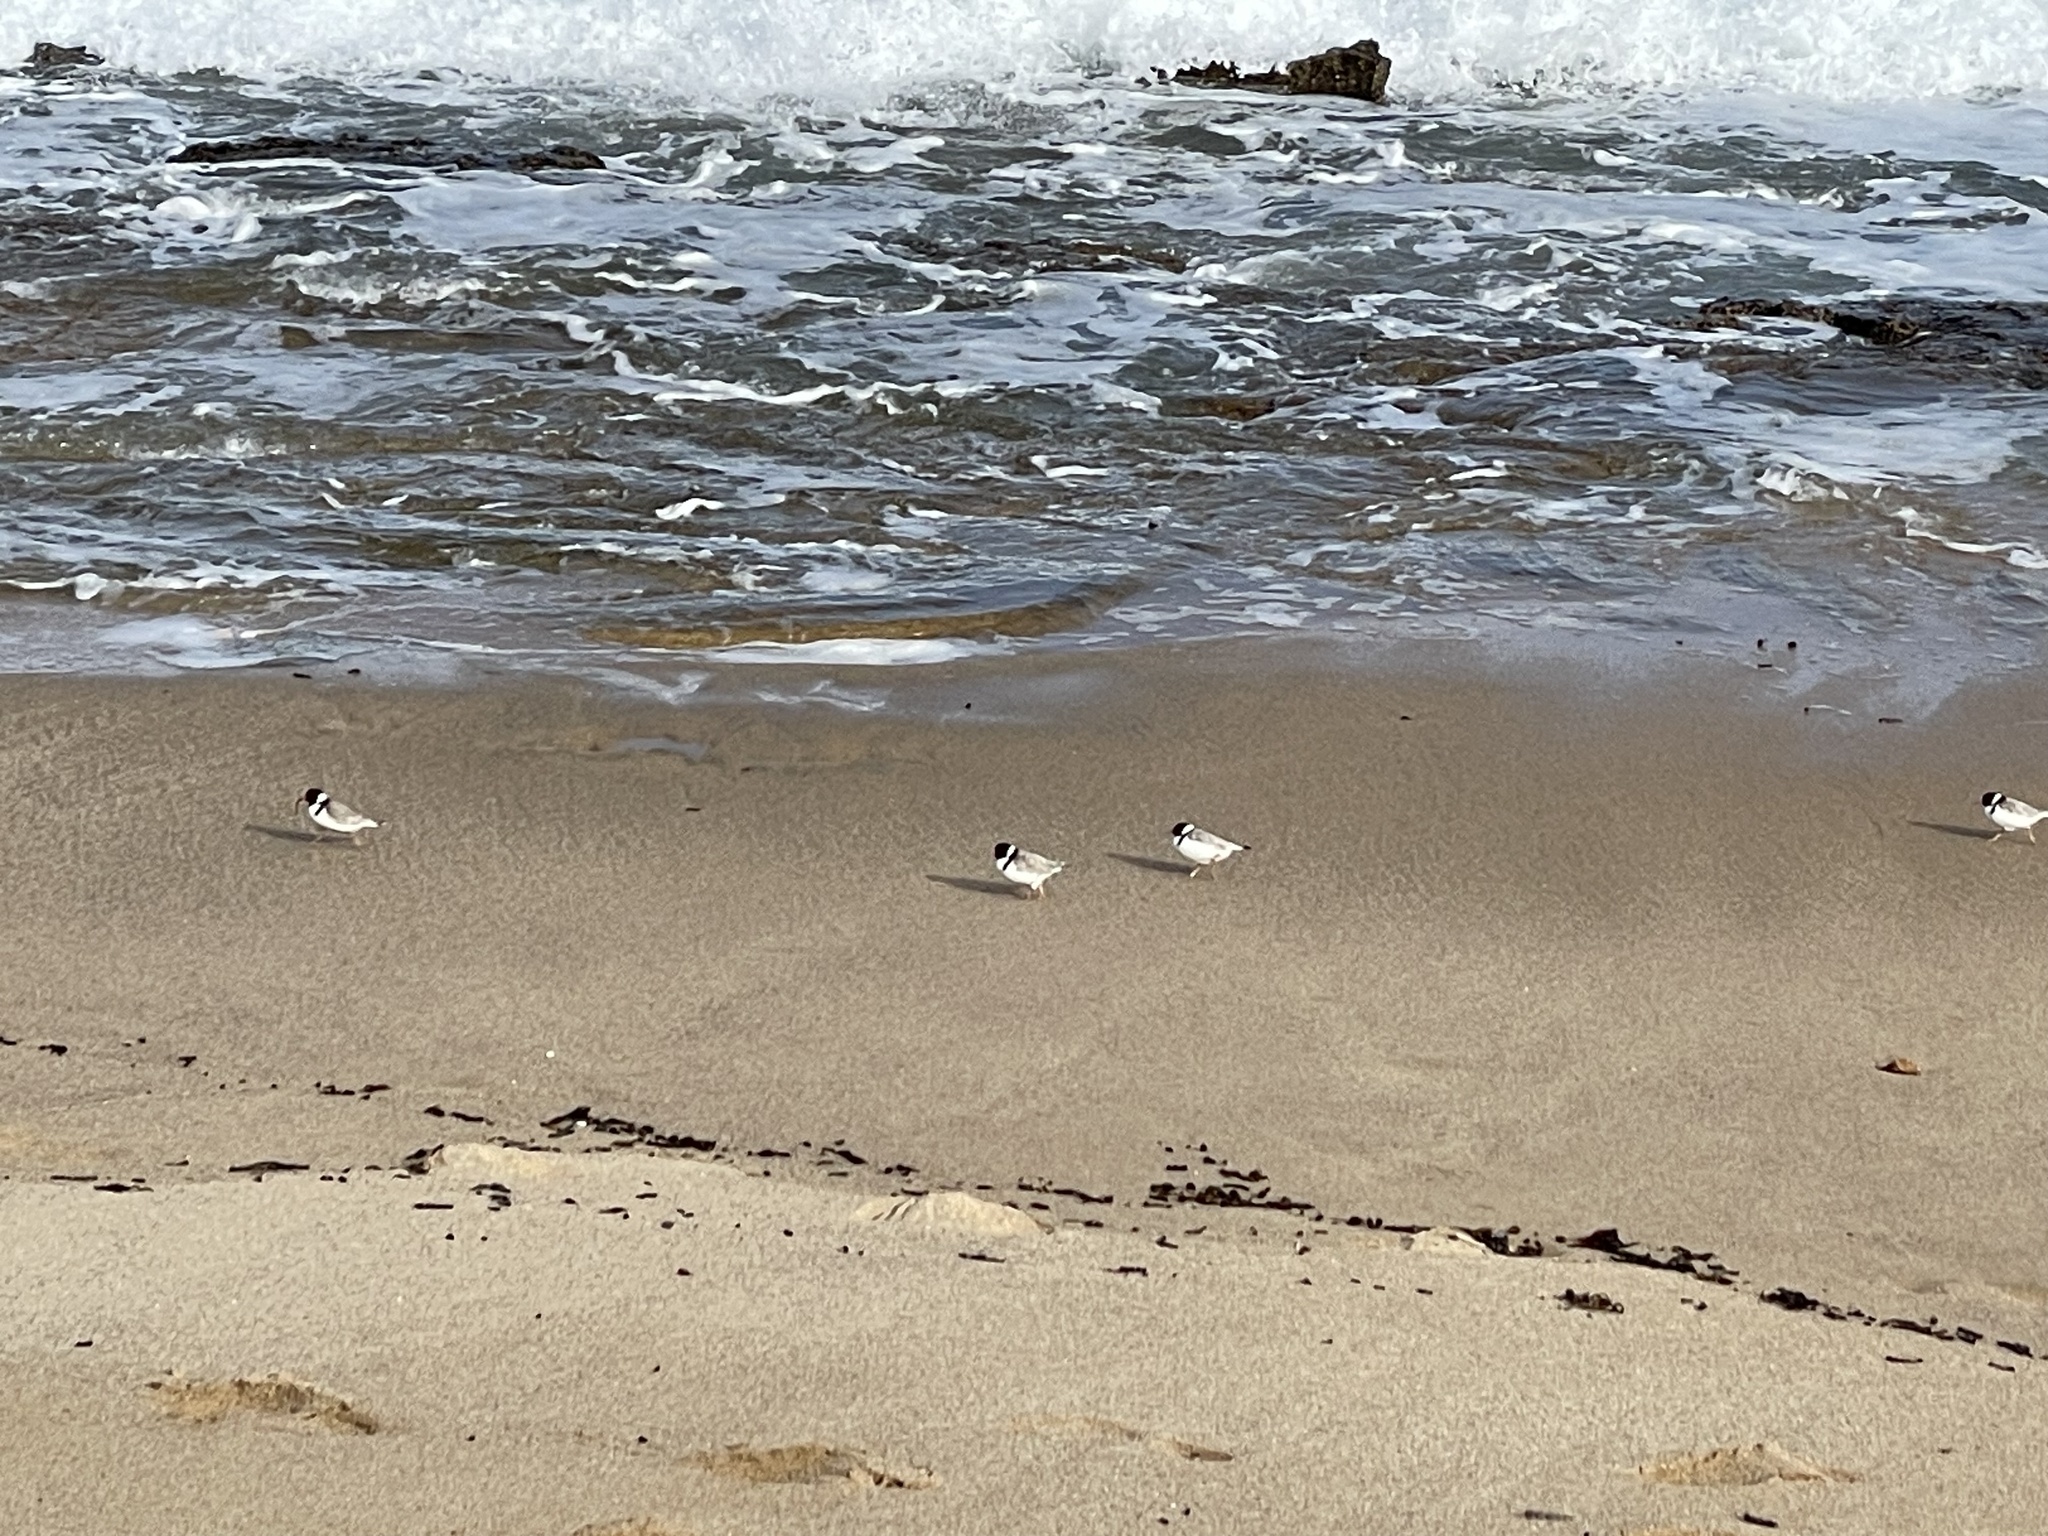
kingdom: Animalia
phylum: Chordata
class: Aves
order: Charadriiformes
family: Charadriidae
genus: Thinornis
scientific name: Thinornis cucullatus
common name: Hooded dotterel
